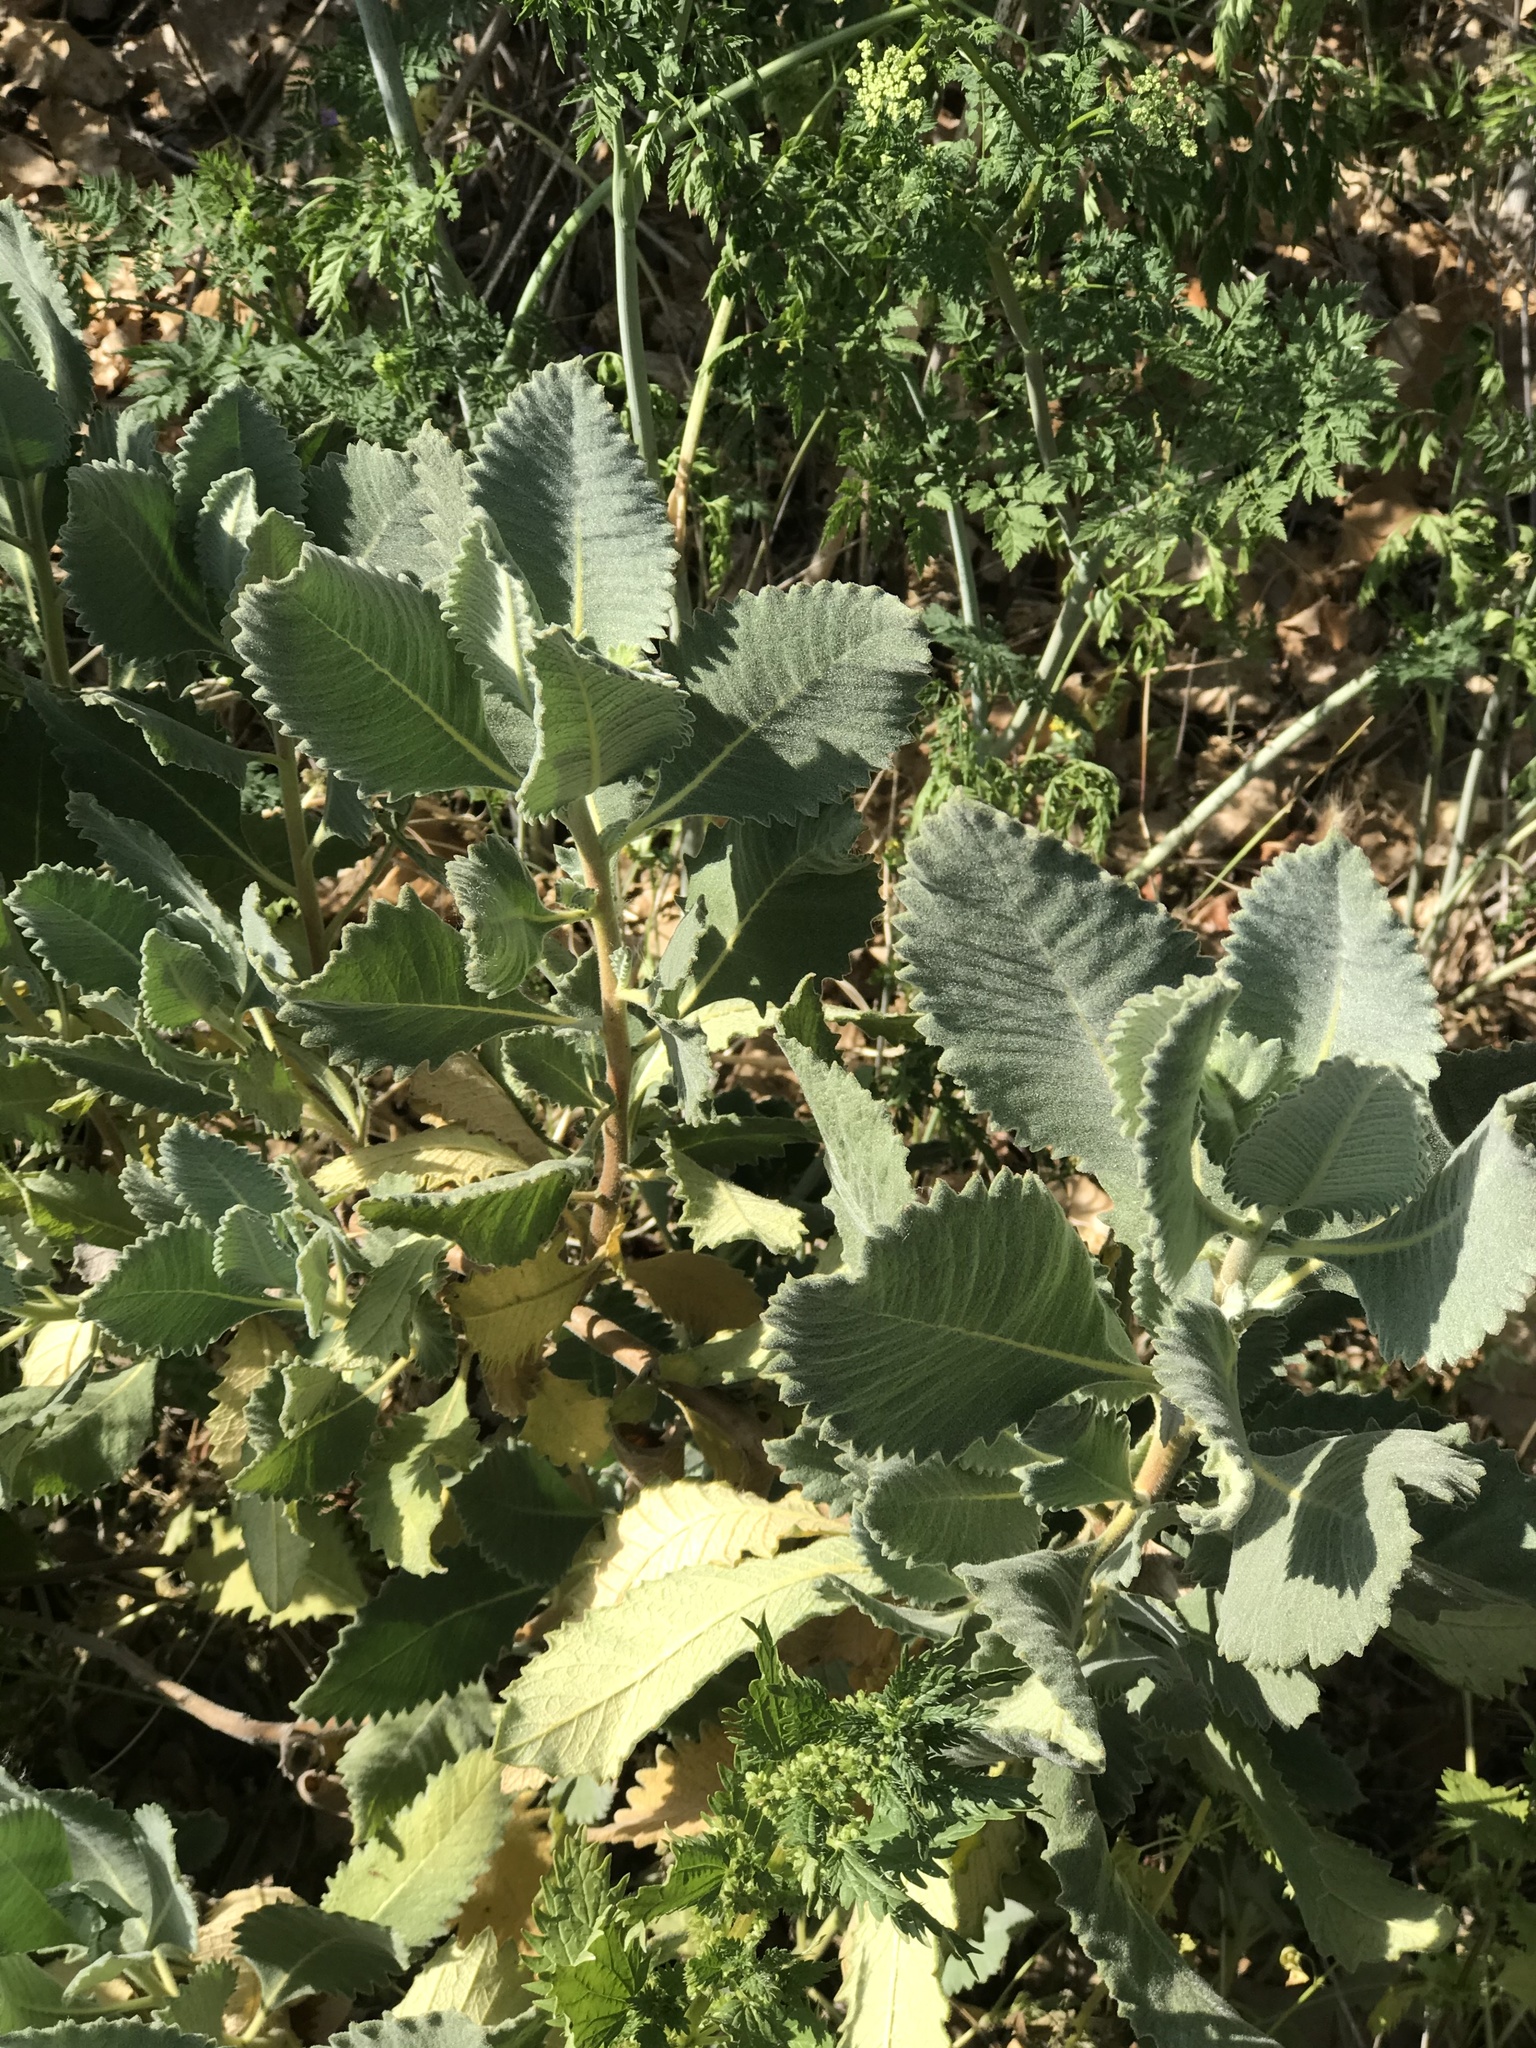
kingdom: Plantae
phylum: Tracheophyta
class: Magnoliopsida
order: Boraginales
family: Namaceae
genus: Eriodictyon
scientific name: Eriodictyon crassifolium
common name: Thick-leaf yerba-santa
